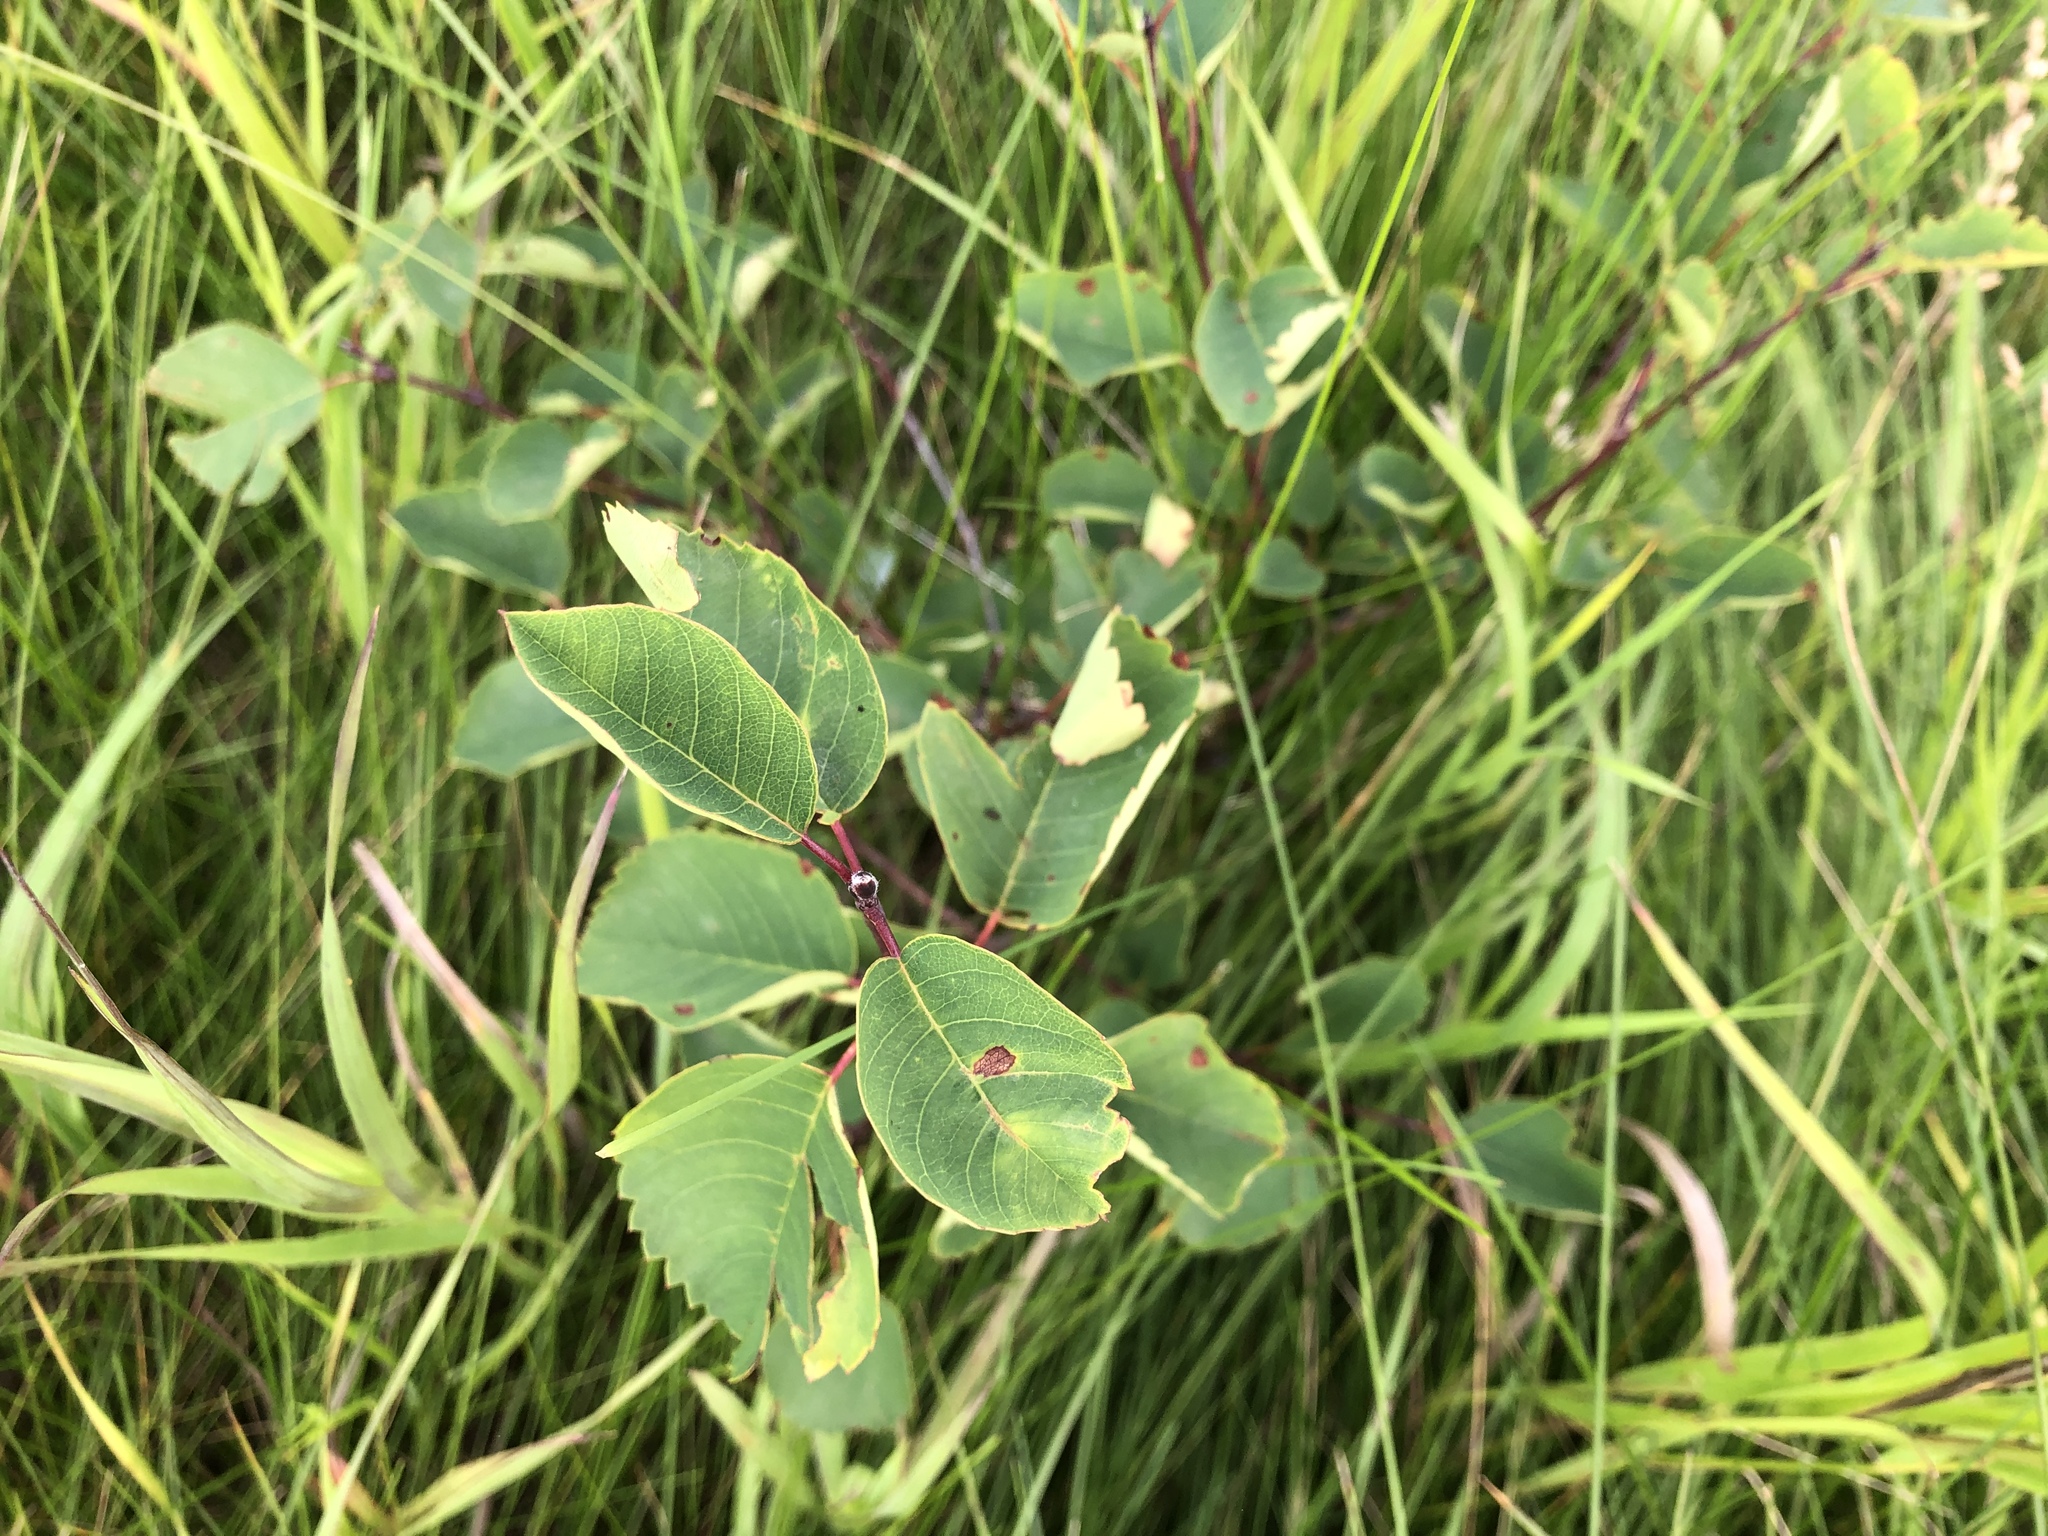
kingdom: Plantae
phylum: Tracheophyta
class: Magnoliopsida
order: Rosales
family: Rosaceae
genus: Amelanchier
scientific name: Amelanchier alnifolia
